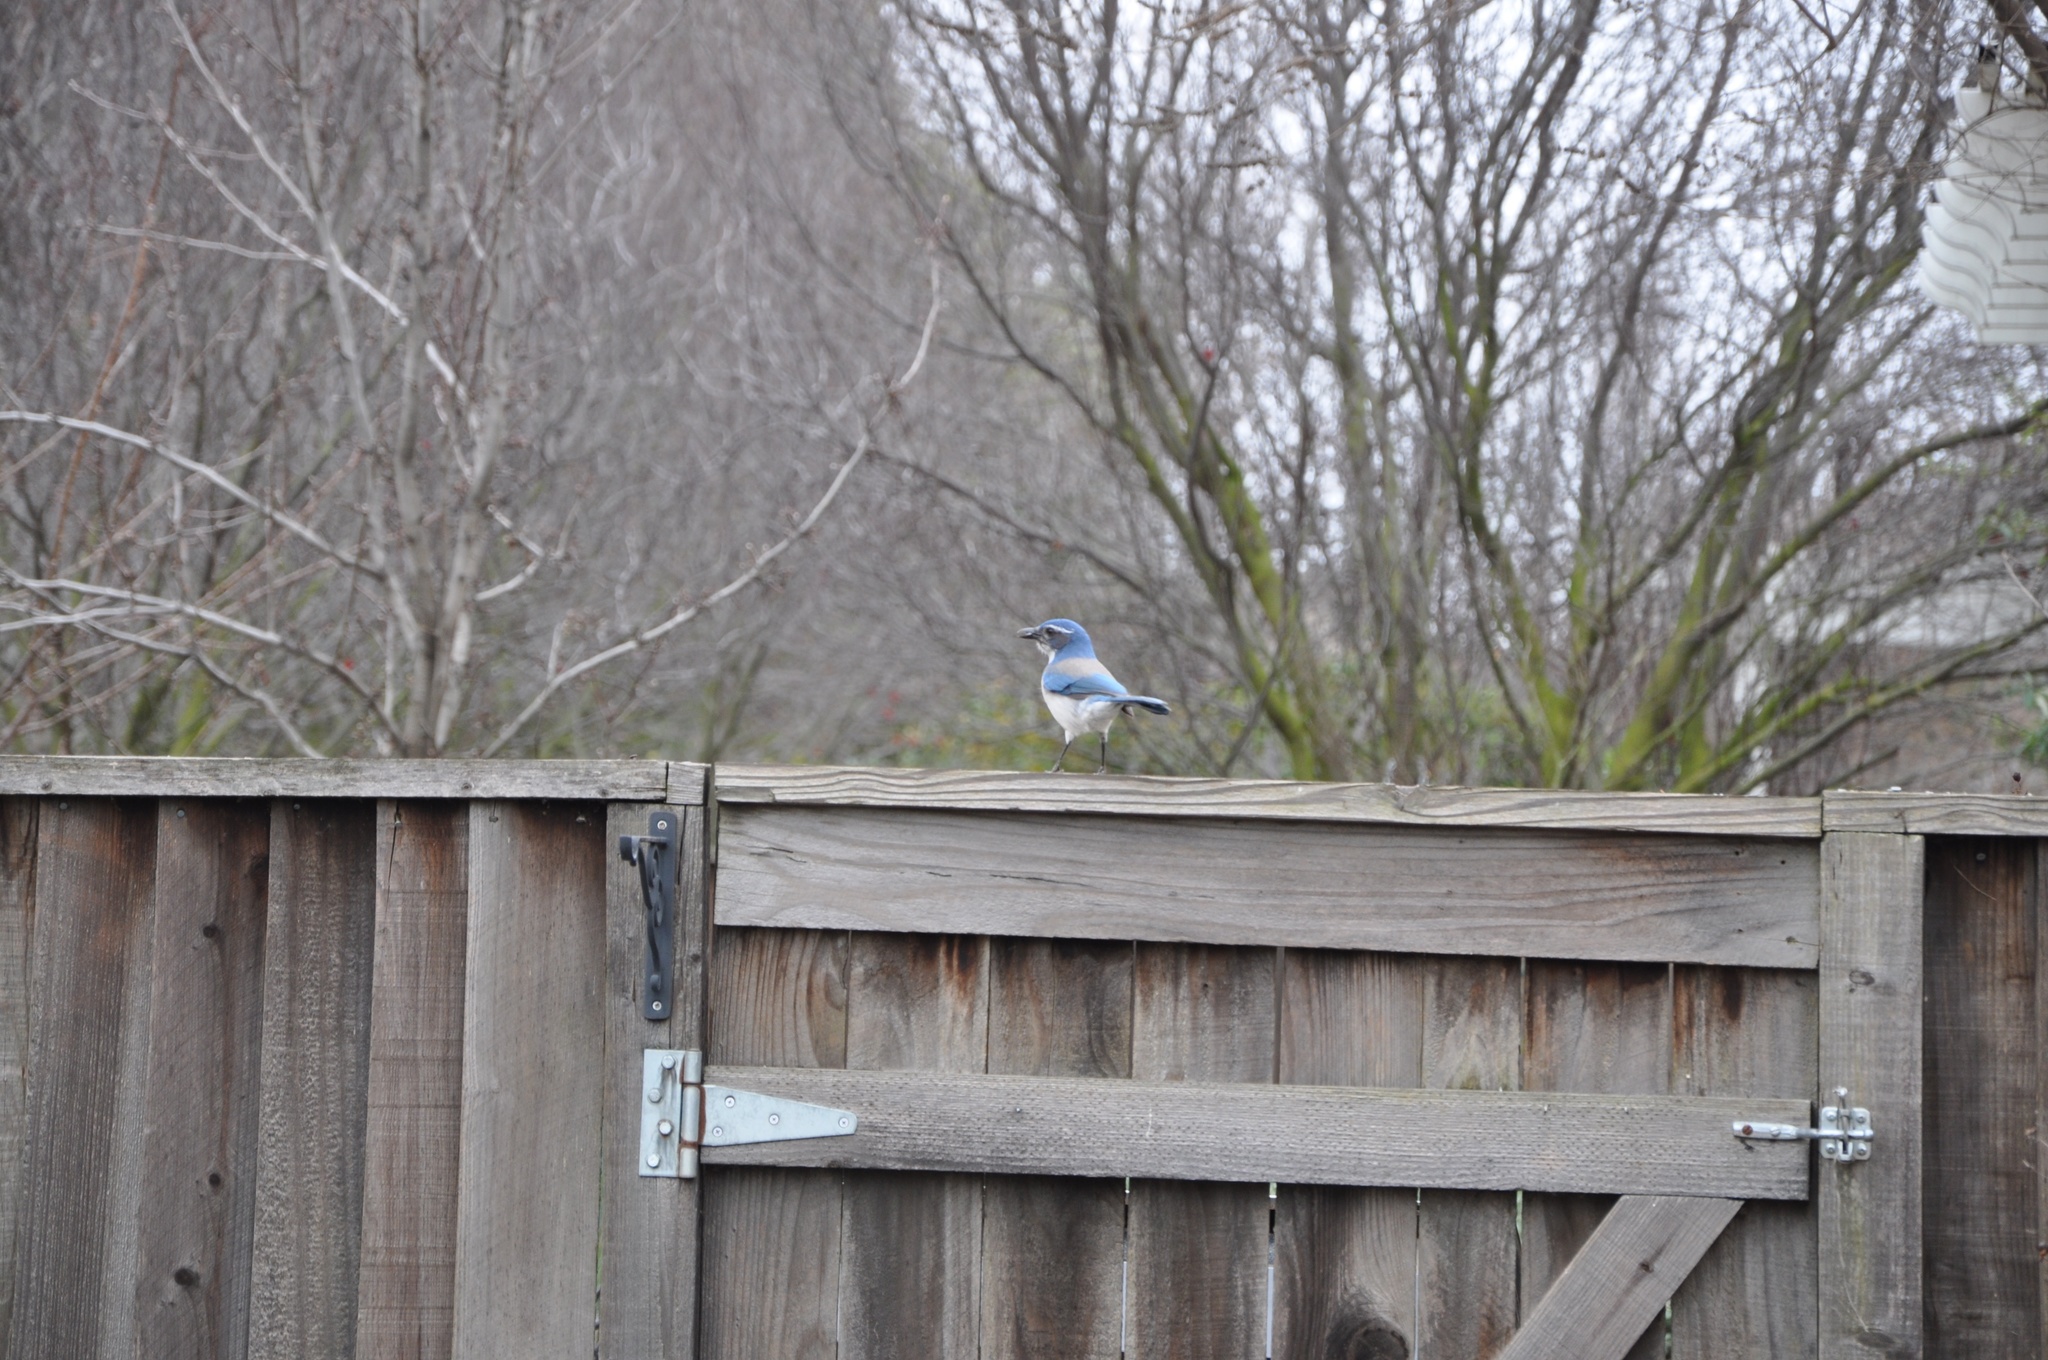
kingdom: Animalia
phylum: Chordata
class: Aves
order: Passeriformes
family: Corvidae
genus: Aphelocoma
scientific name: Aphelocoma californica
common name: California scrub-jay
